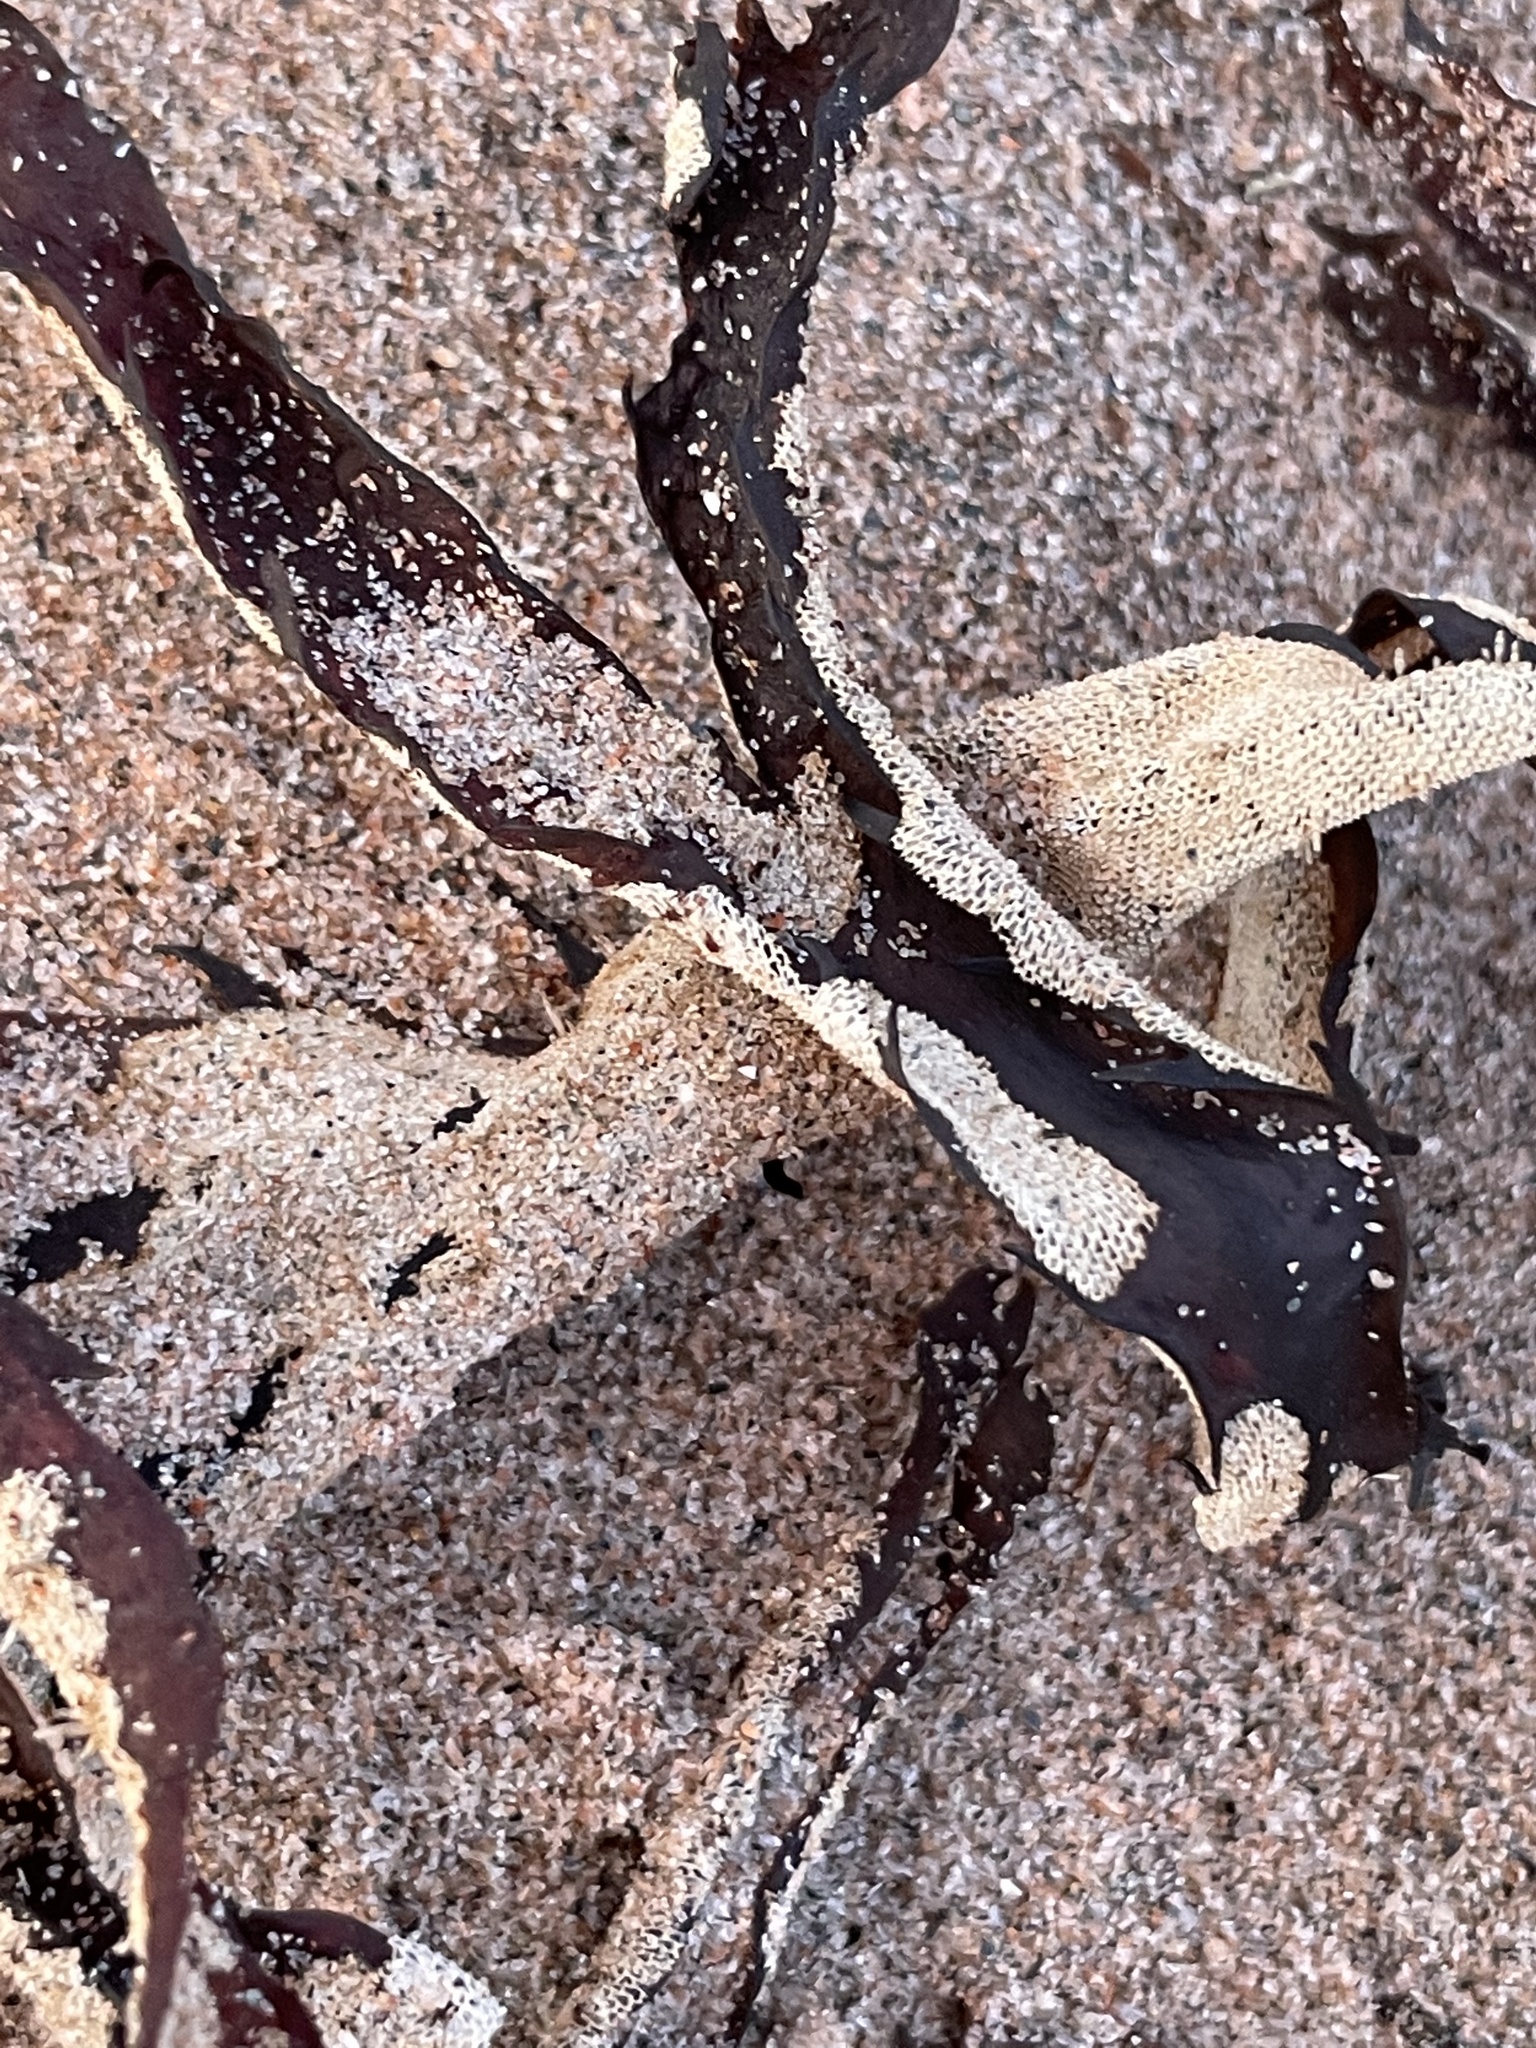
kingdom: Animalia
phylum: Bryozoa
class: Gymnolaemata
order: Cheilostomatida
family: Membraniporidae
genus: Membranipora
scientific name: Membranipora membranacea
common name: Sea mat
